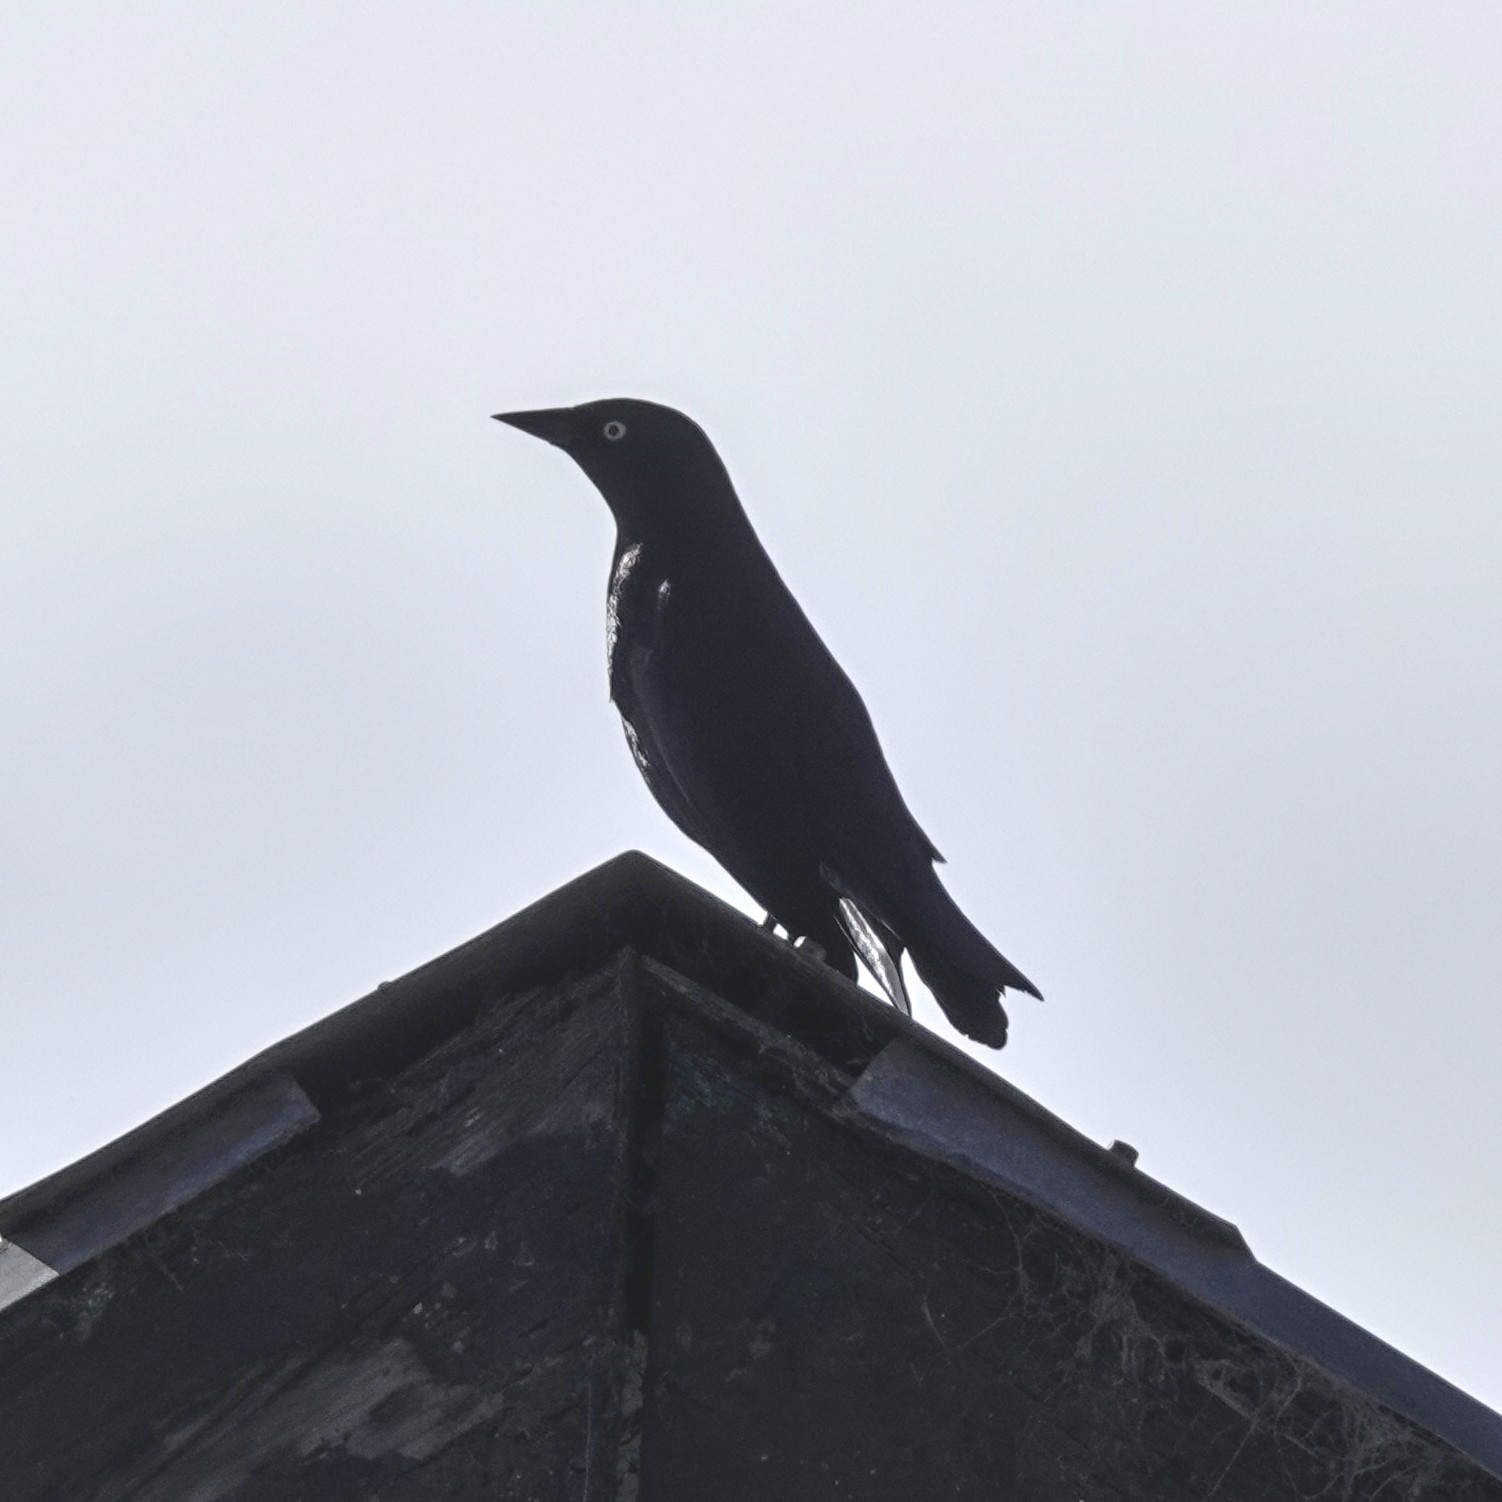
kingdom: Animalia
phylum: Chordata
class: Aves
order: Passeriformes
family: Icteridae
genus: Euphagus
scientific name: Euphagus cyanocephalus
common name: Brewer's blackbird
